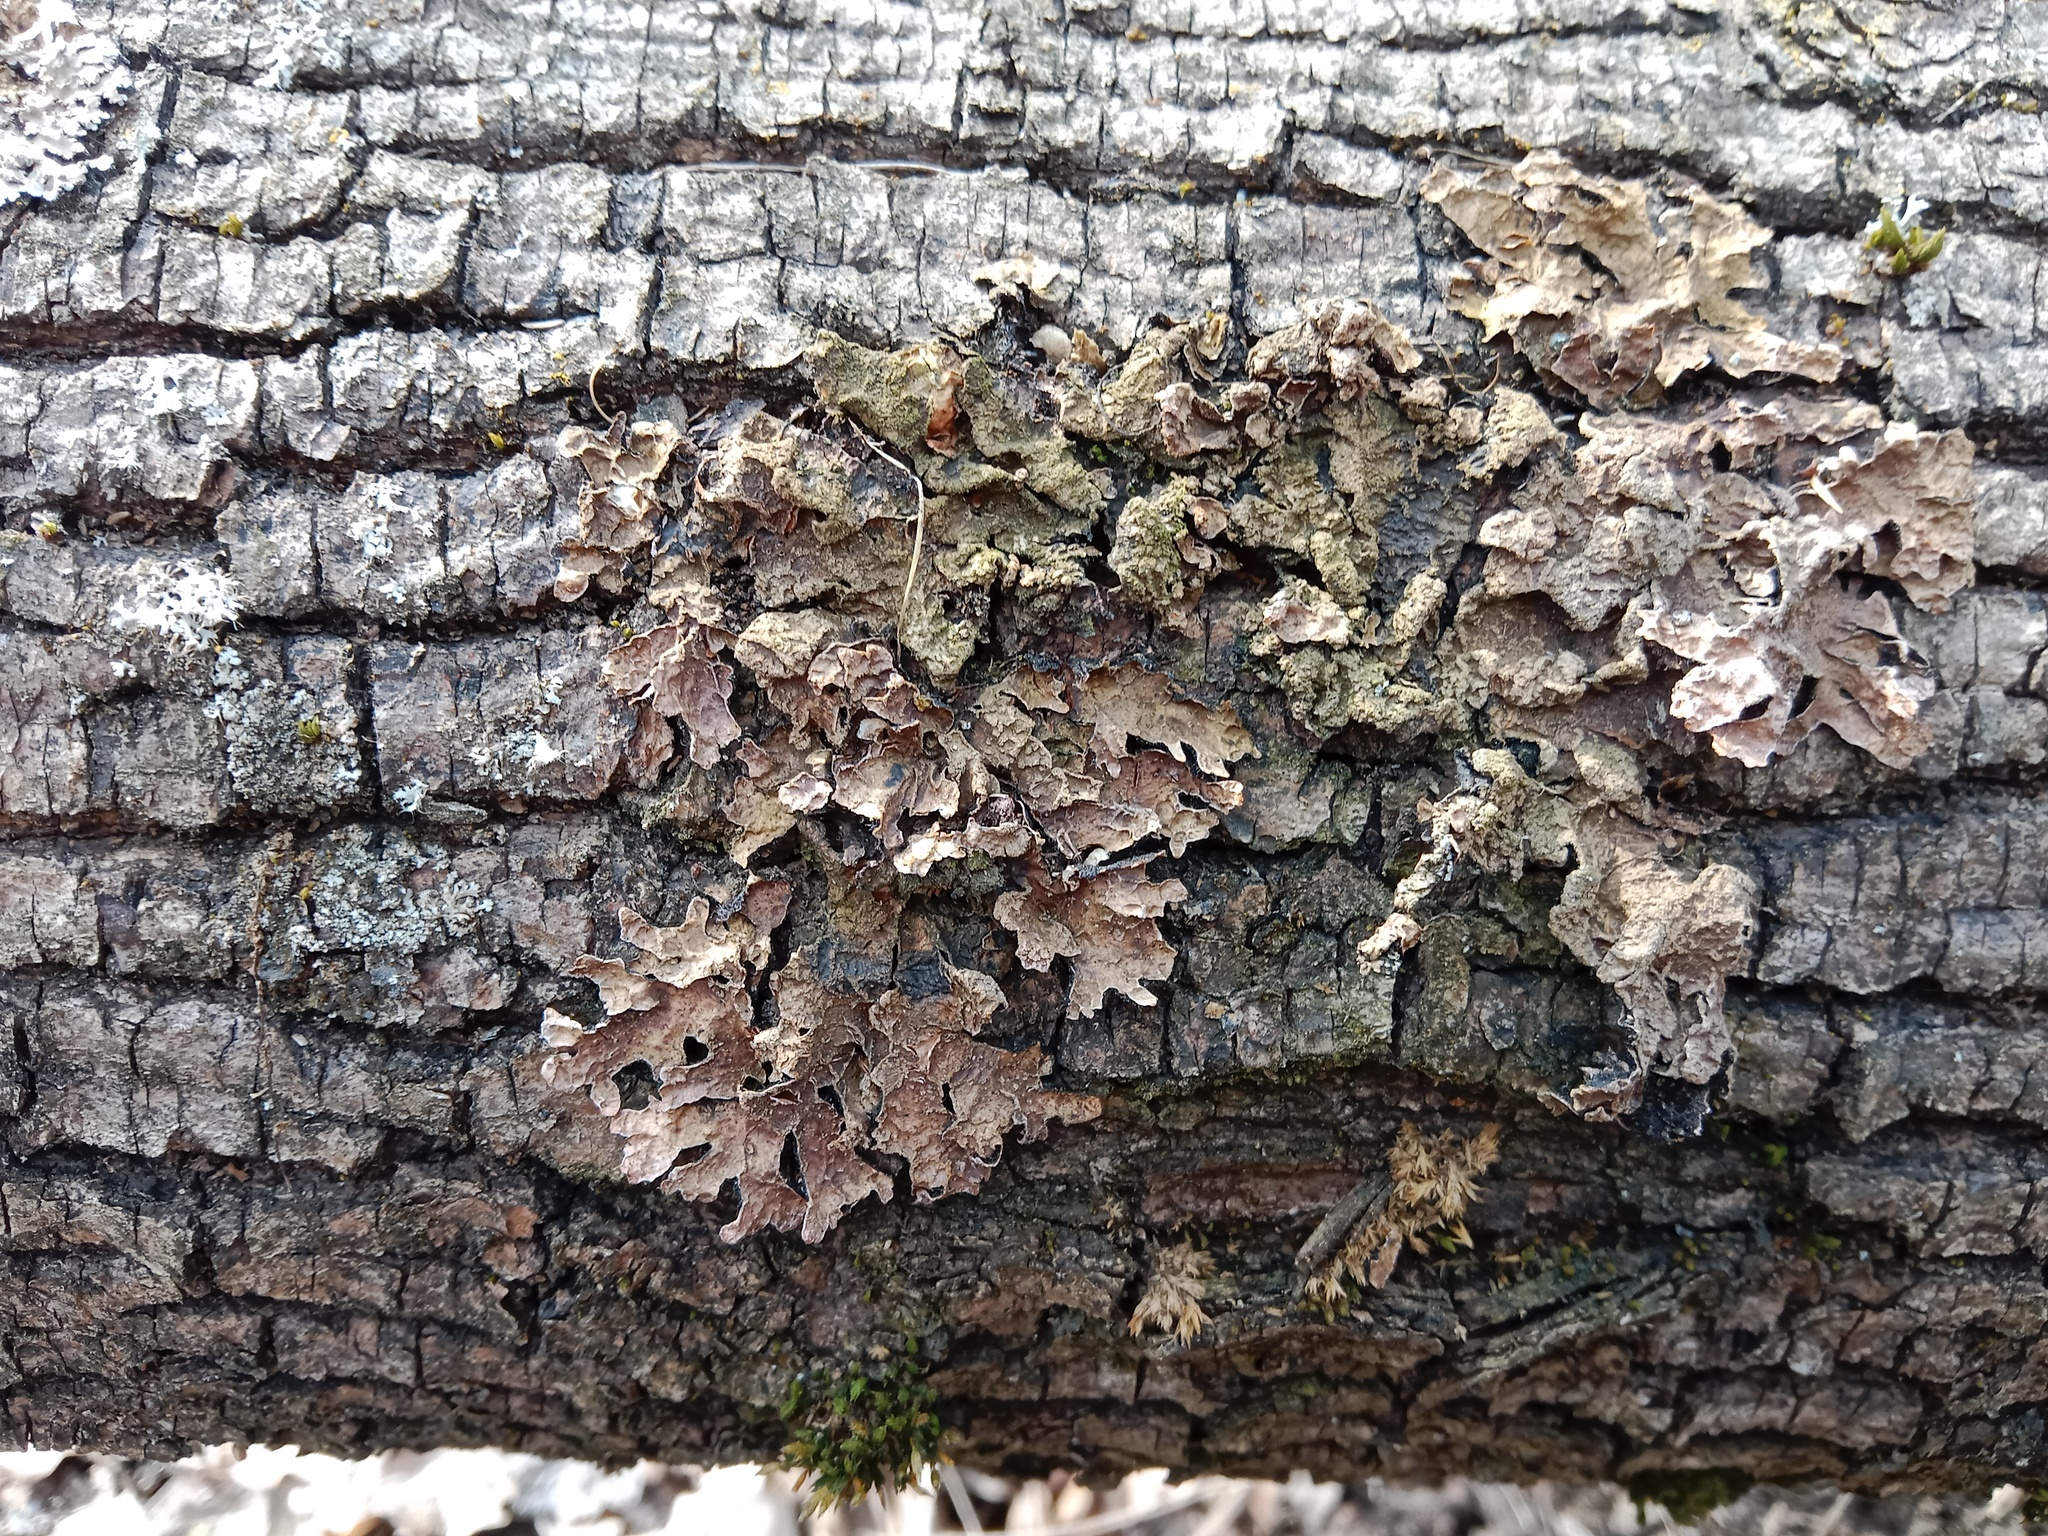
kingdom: Fungi
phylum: Ascomycota
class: Lecanoromycetes
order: Lecanorales
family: Parmeliaceae
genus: Parmelia
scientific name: Parmelia sulcata
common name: Netted shield lichen
